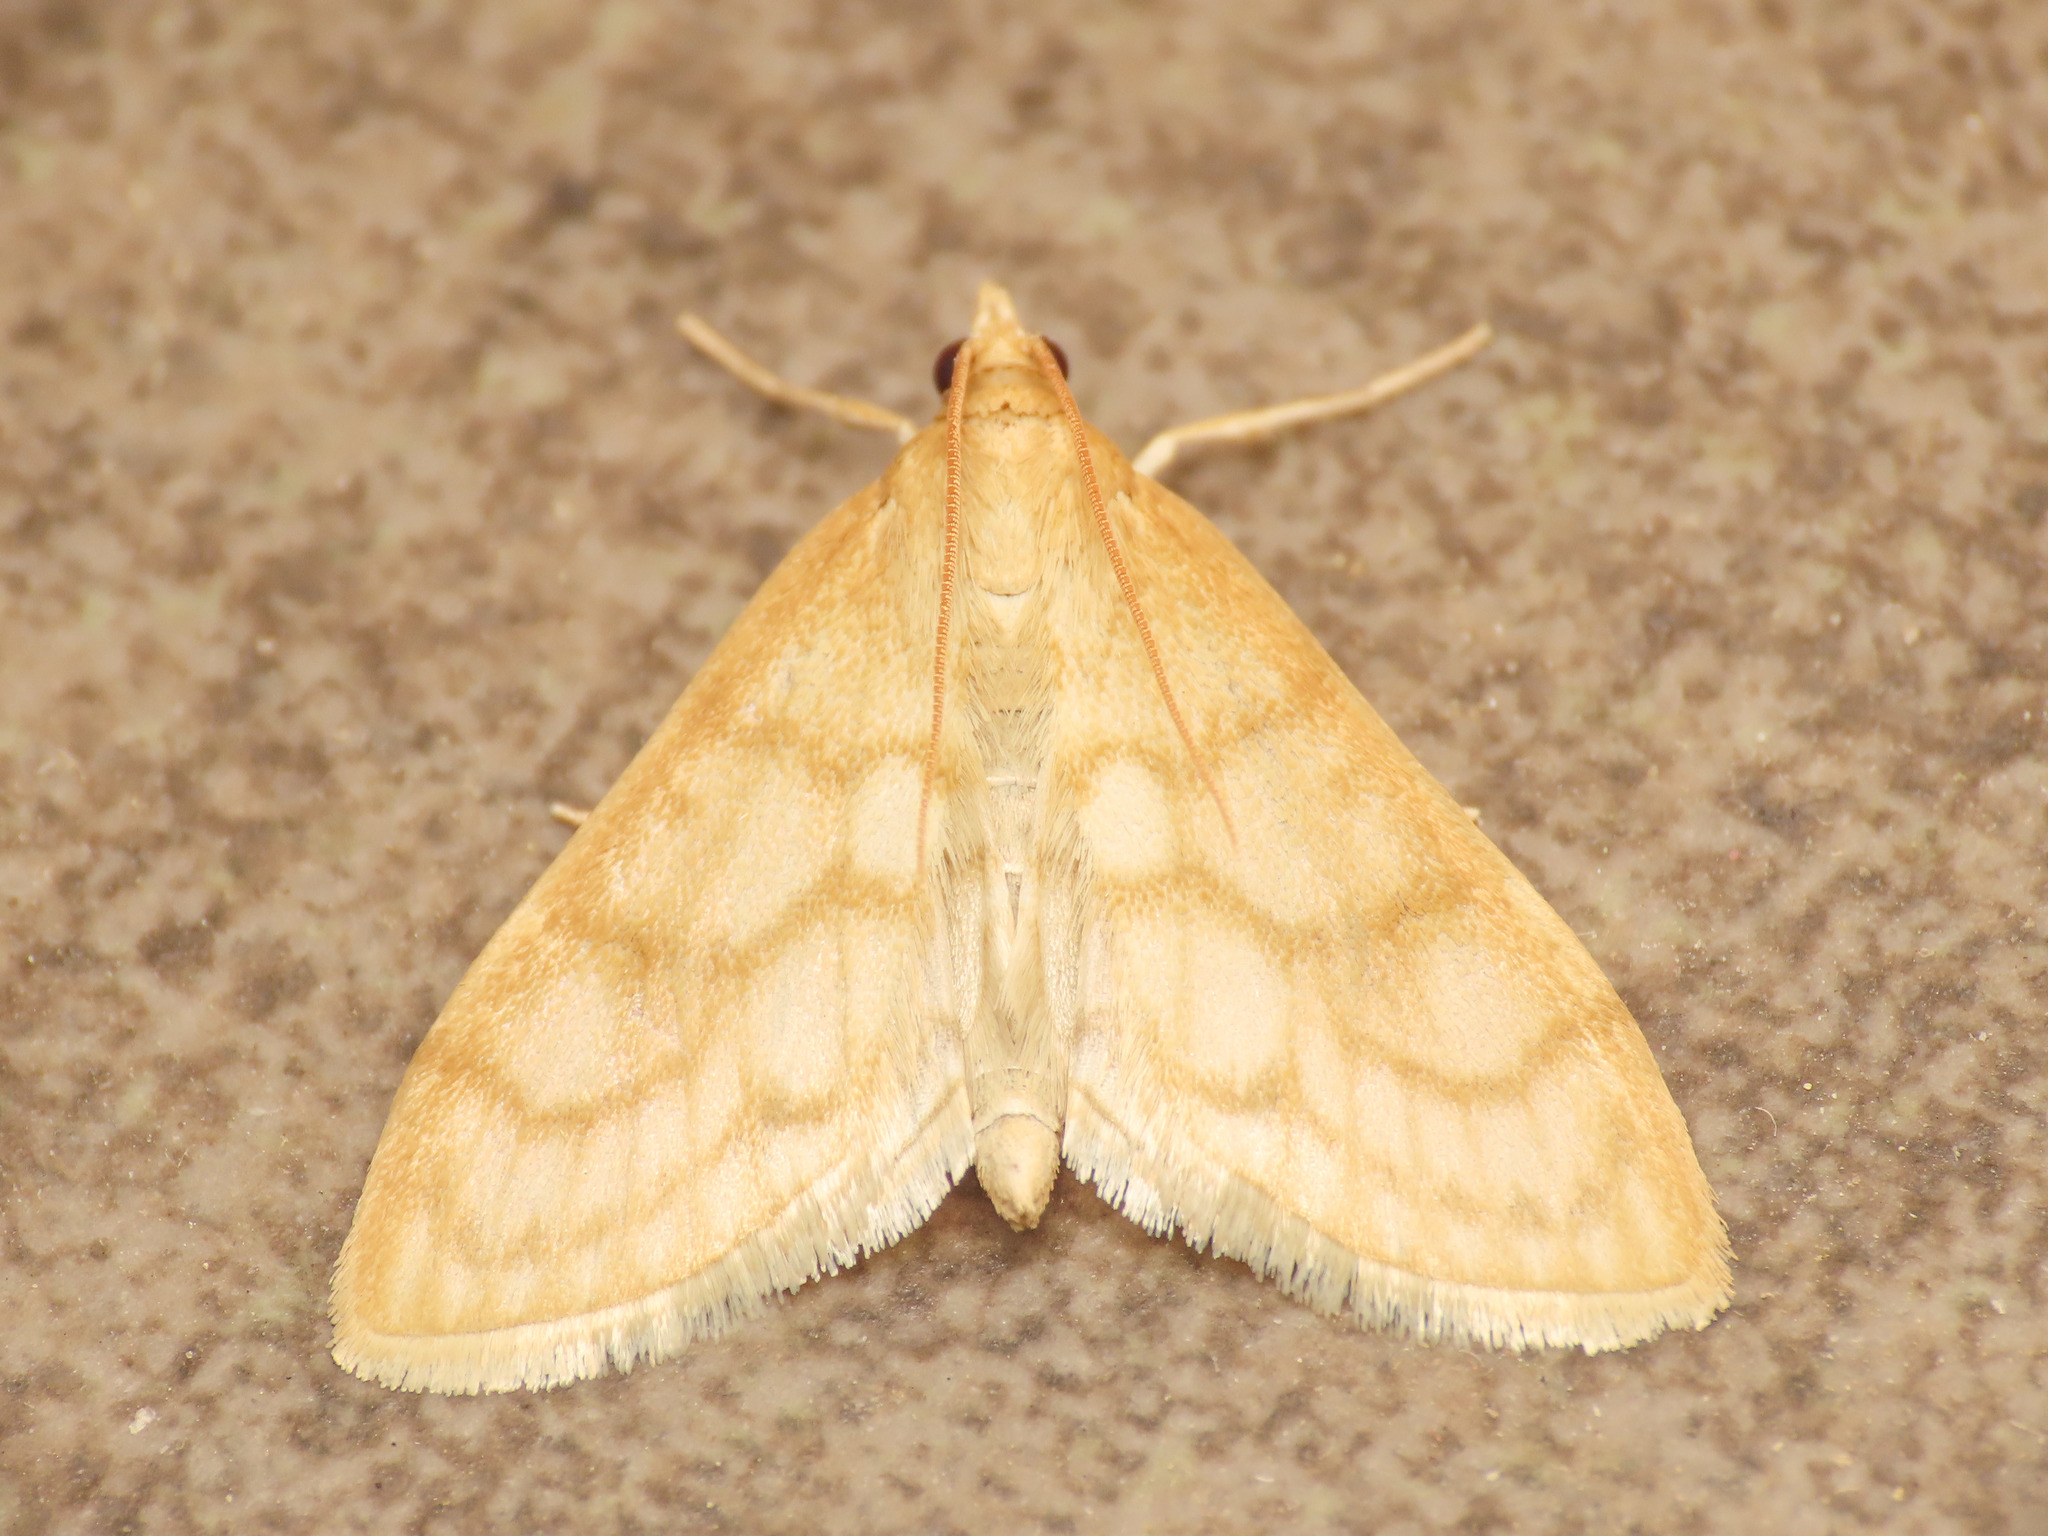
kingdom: Animalia
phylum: Arthropoda
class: Insecta
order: Lepidoptera
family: Crambidae
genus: Paracorsia
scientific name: Paracorsia repandalis
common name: Mullein moth
